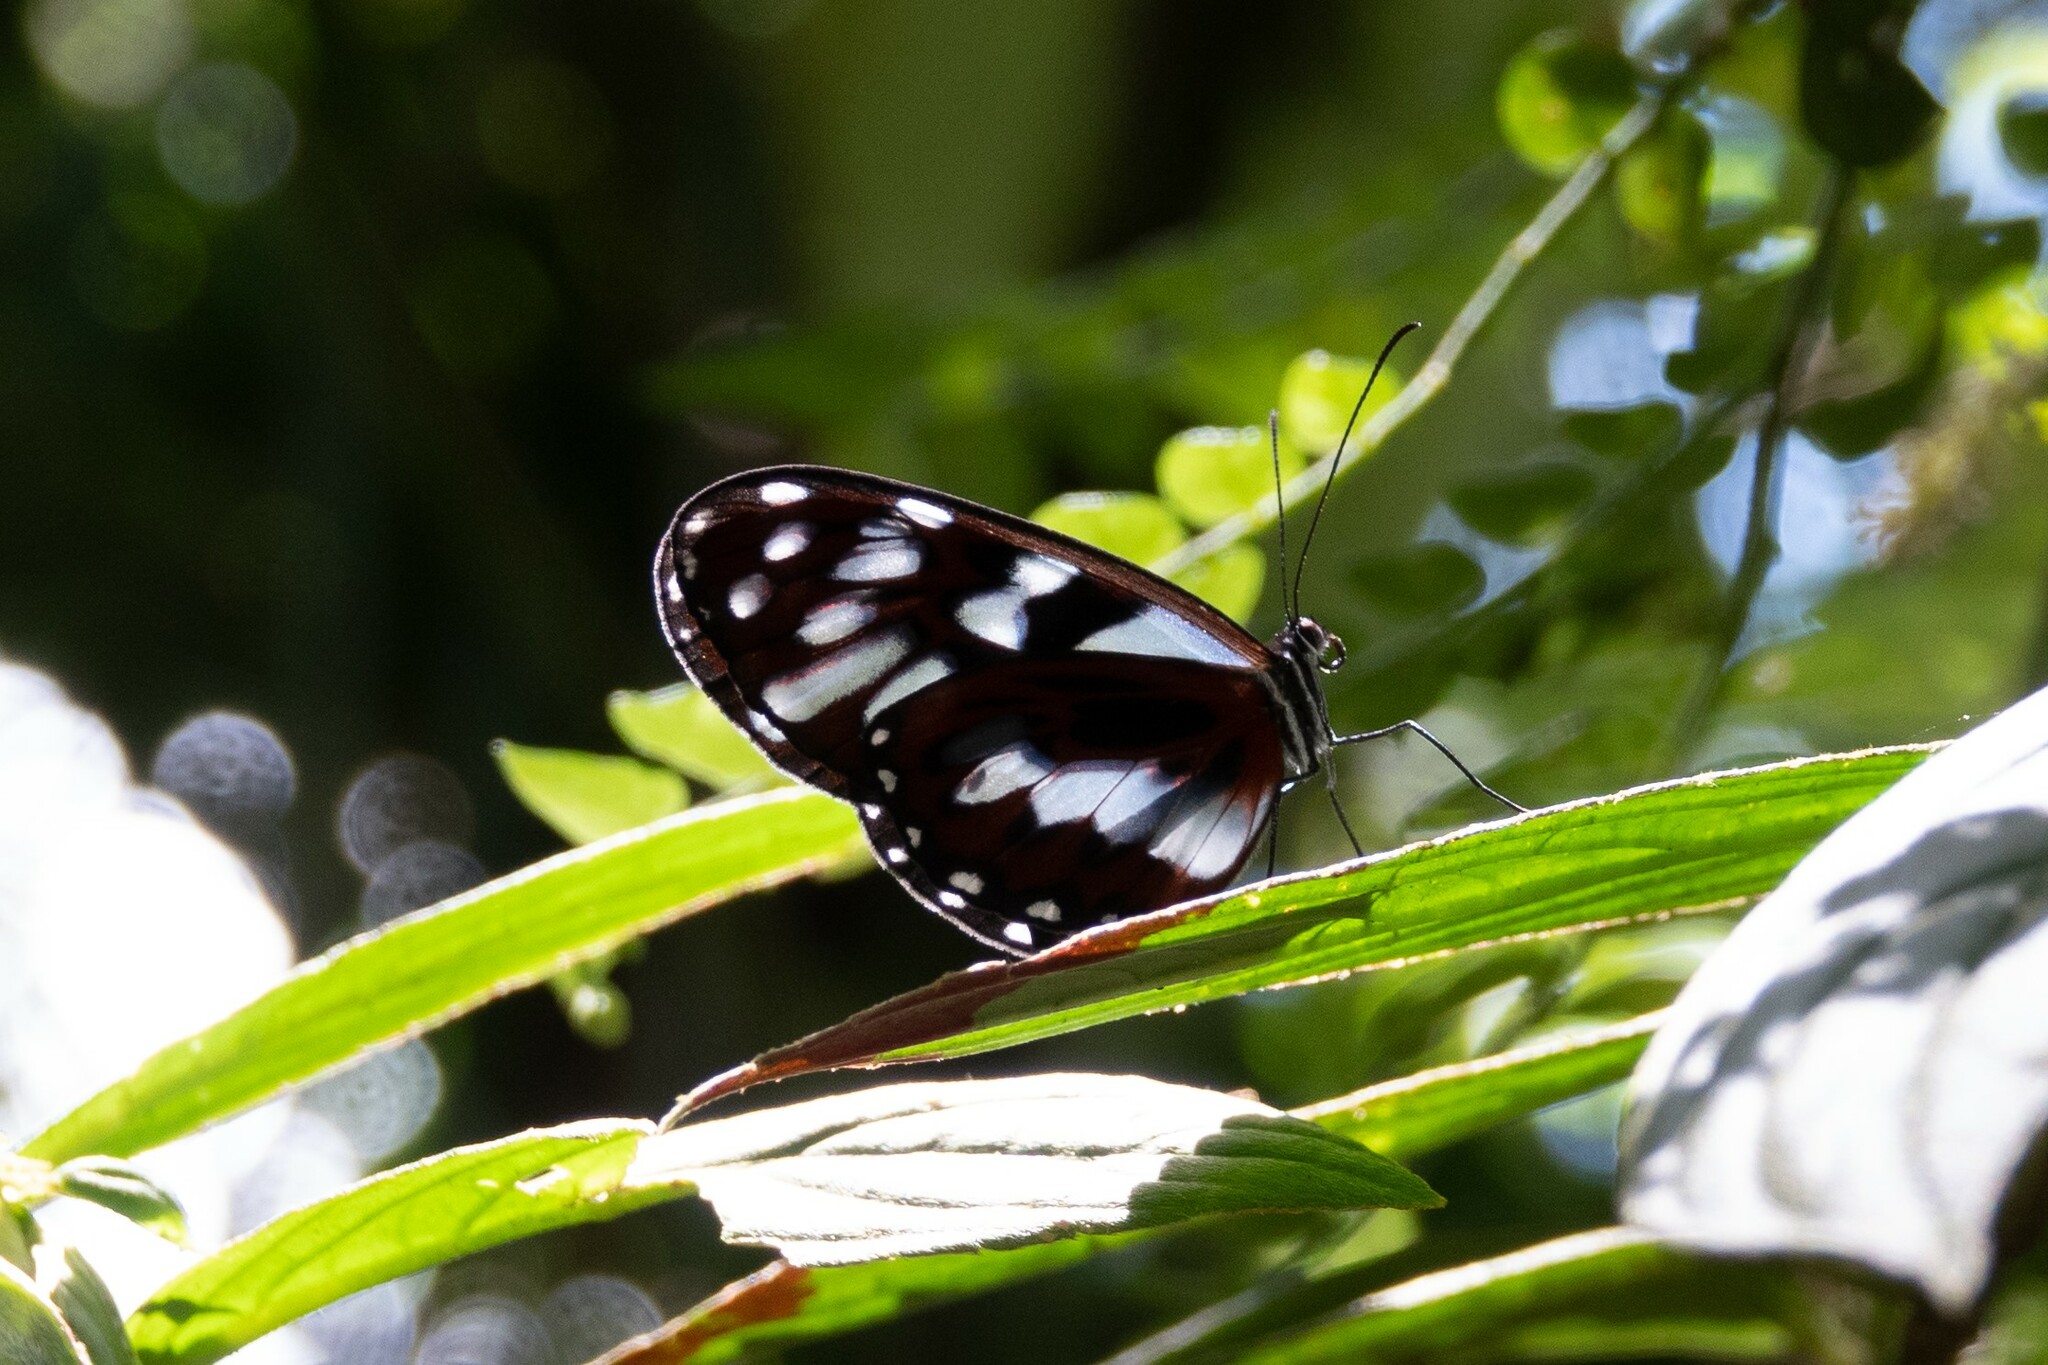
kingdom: Animalia
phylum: Arthropoda
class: Insecta
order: Lepidoptera
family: Nymphalidae
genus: Oleria
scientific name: Oleria cyrene
